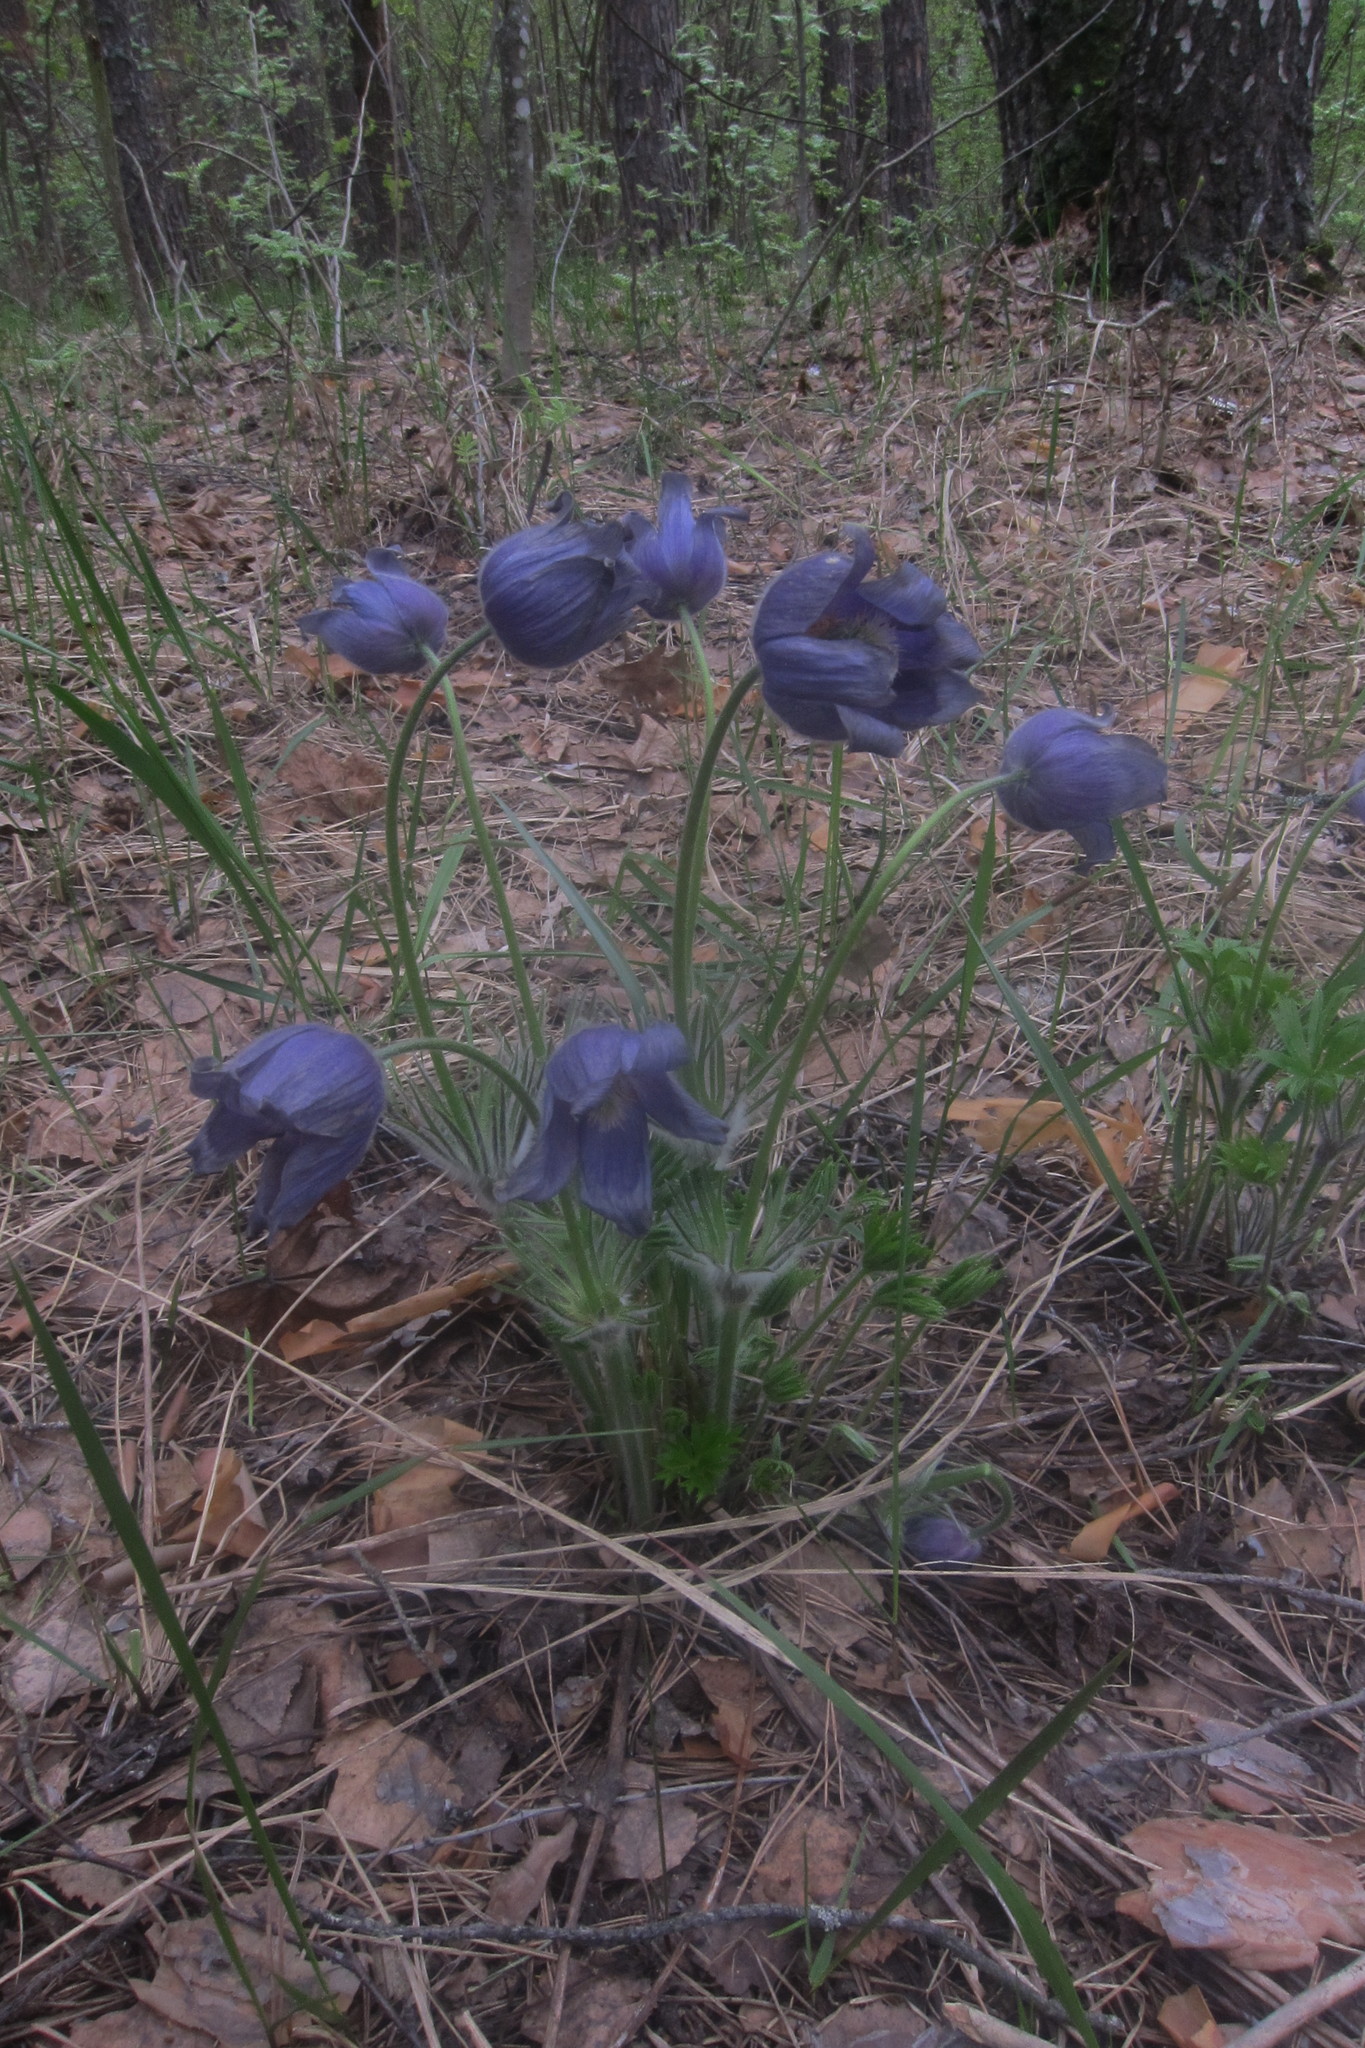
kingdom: Plantae
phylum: Tracheophyta
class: Magnoliopsida
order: Ranunculales
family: Ranunculaceae
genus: Pulsatilla
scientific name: Pulsatilla patens
